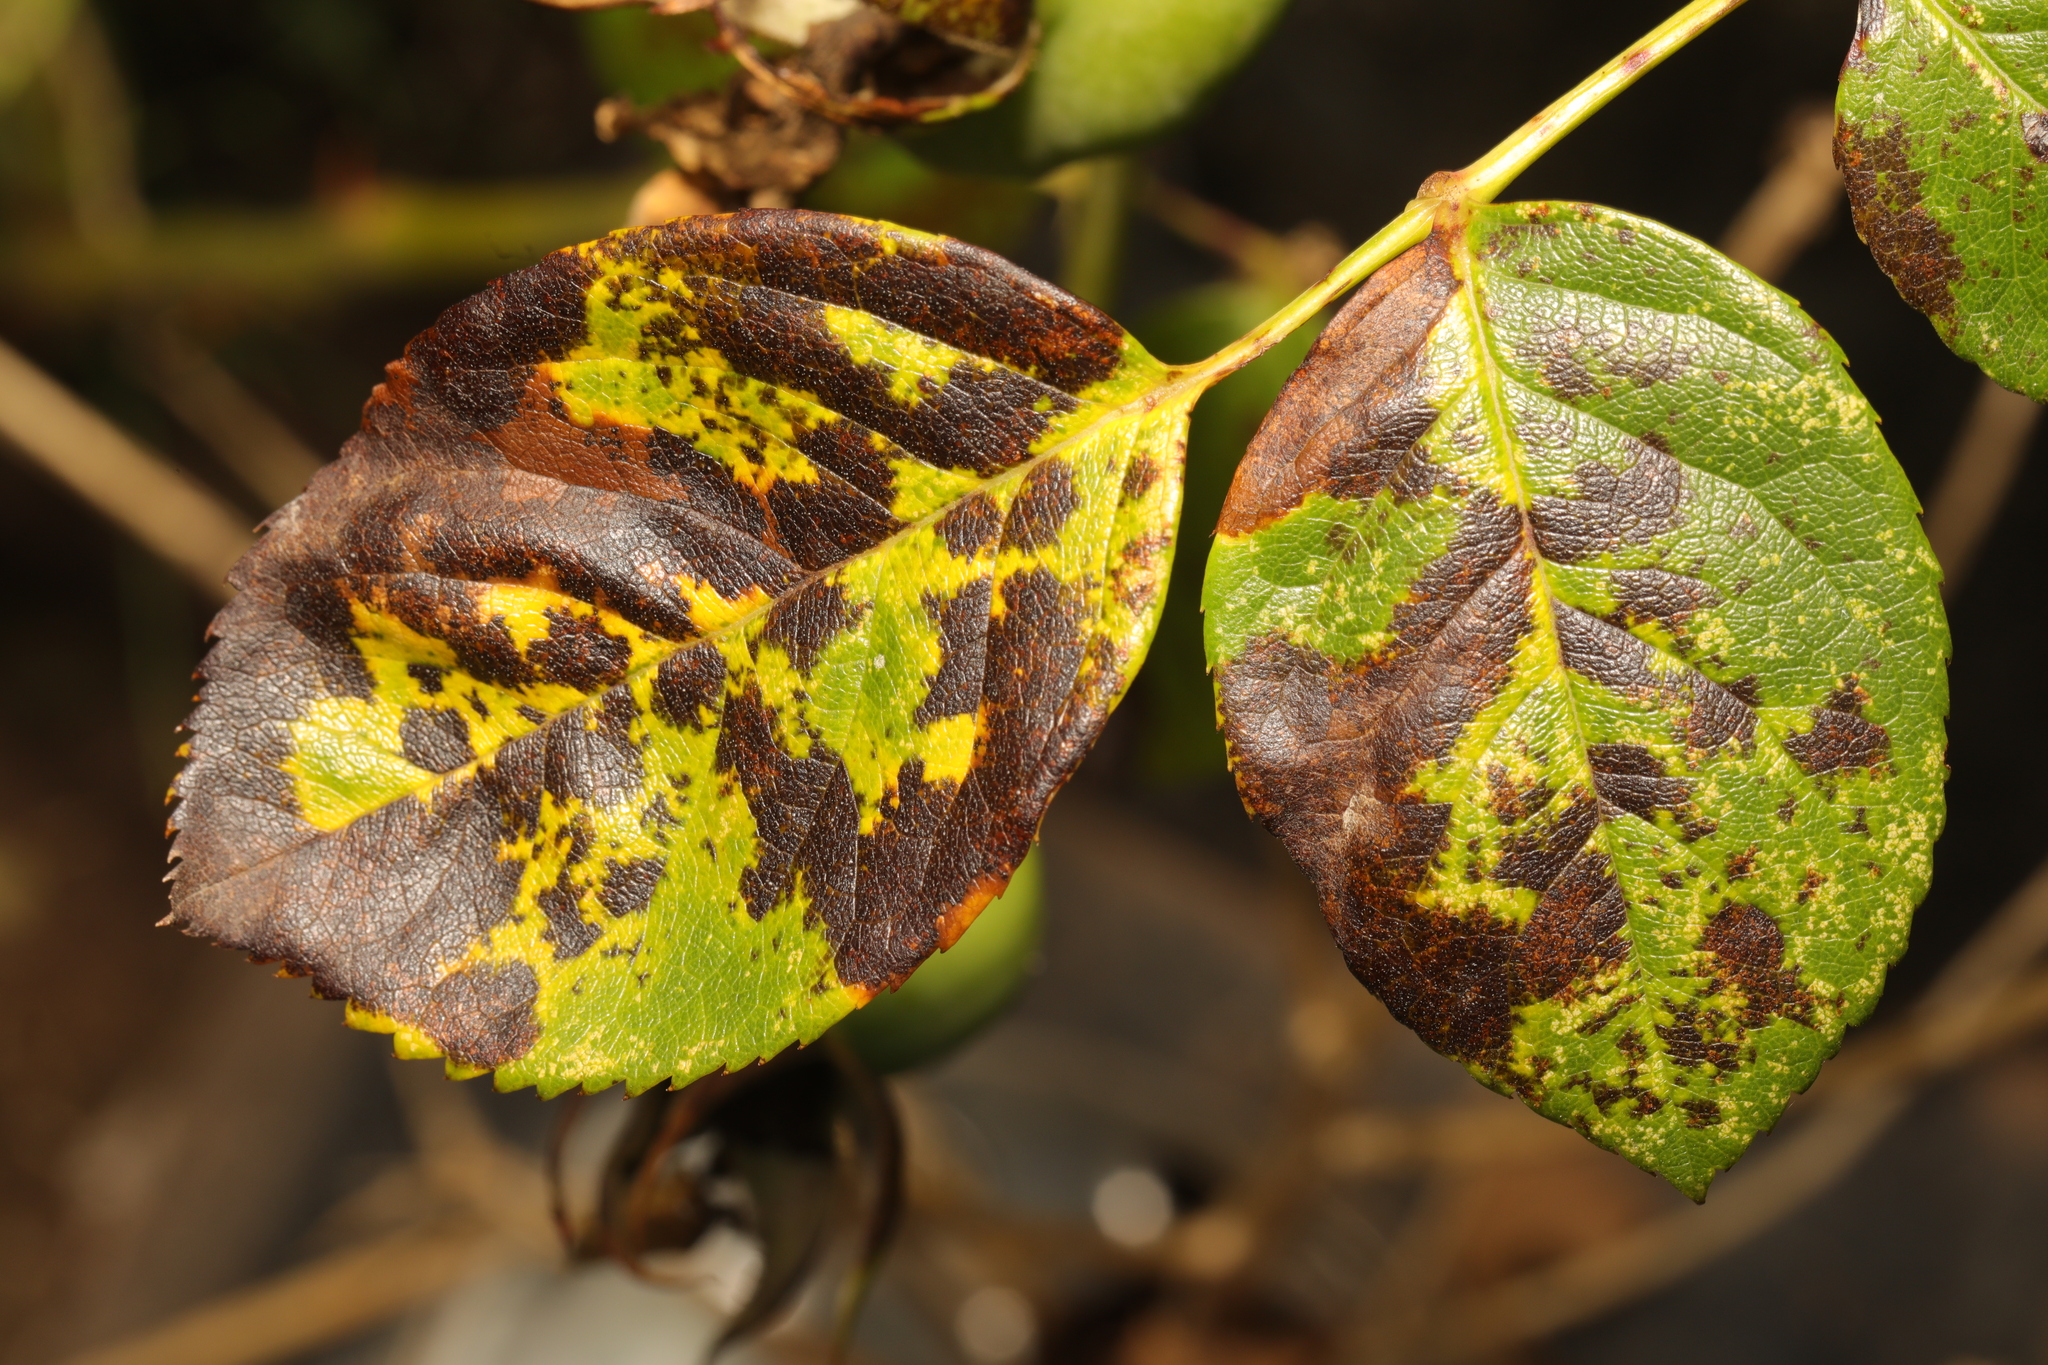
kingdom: Fungi
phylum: Ascomycota
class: Leotiomycetes
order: Helotiales
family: Drepanopezizaceae
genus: Diplocarpon
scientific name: Diplocarpon rosae
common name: Rose black-spot
